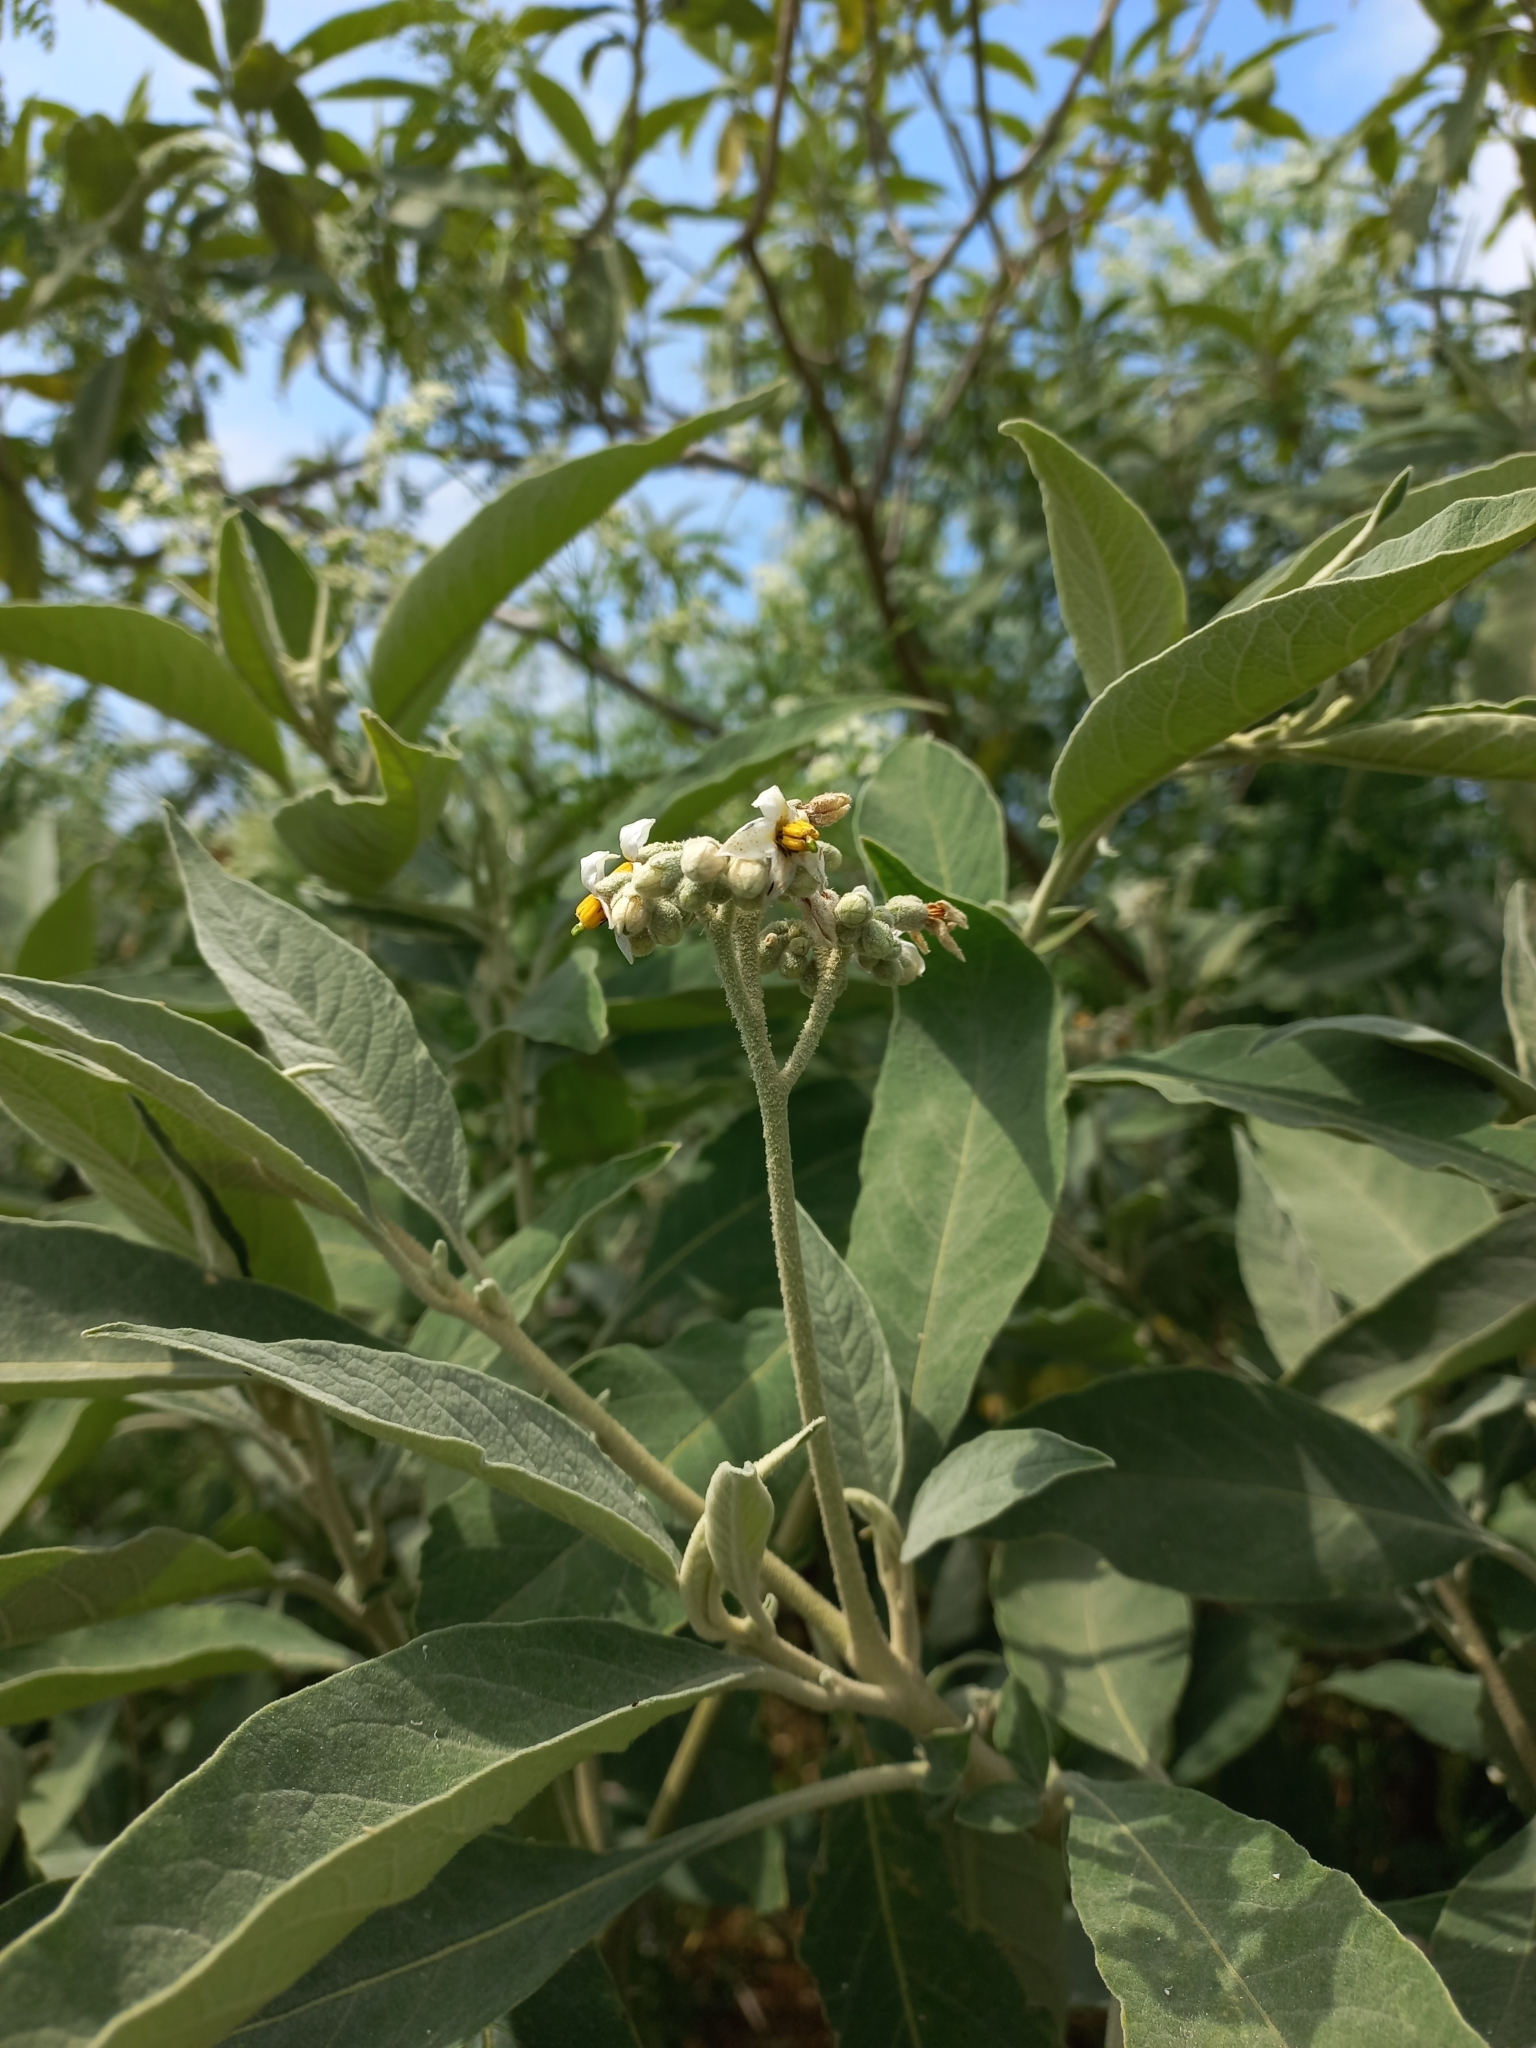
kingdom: Plantae
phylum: Tracheophyta
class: Magnoliopsida
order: Solanales
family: Solanaceae
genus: Solanum
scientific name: Solanum granulosoleprosum
